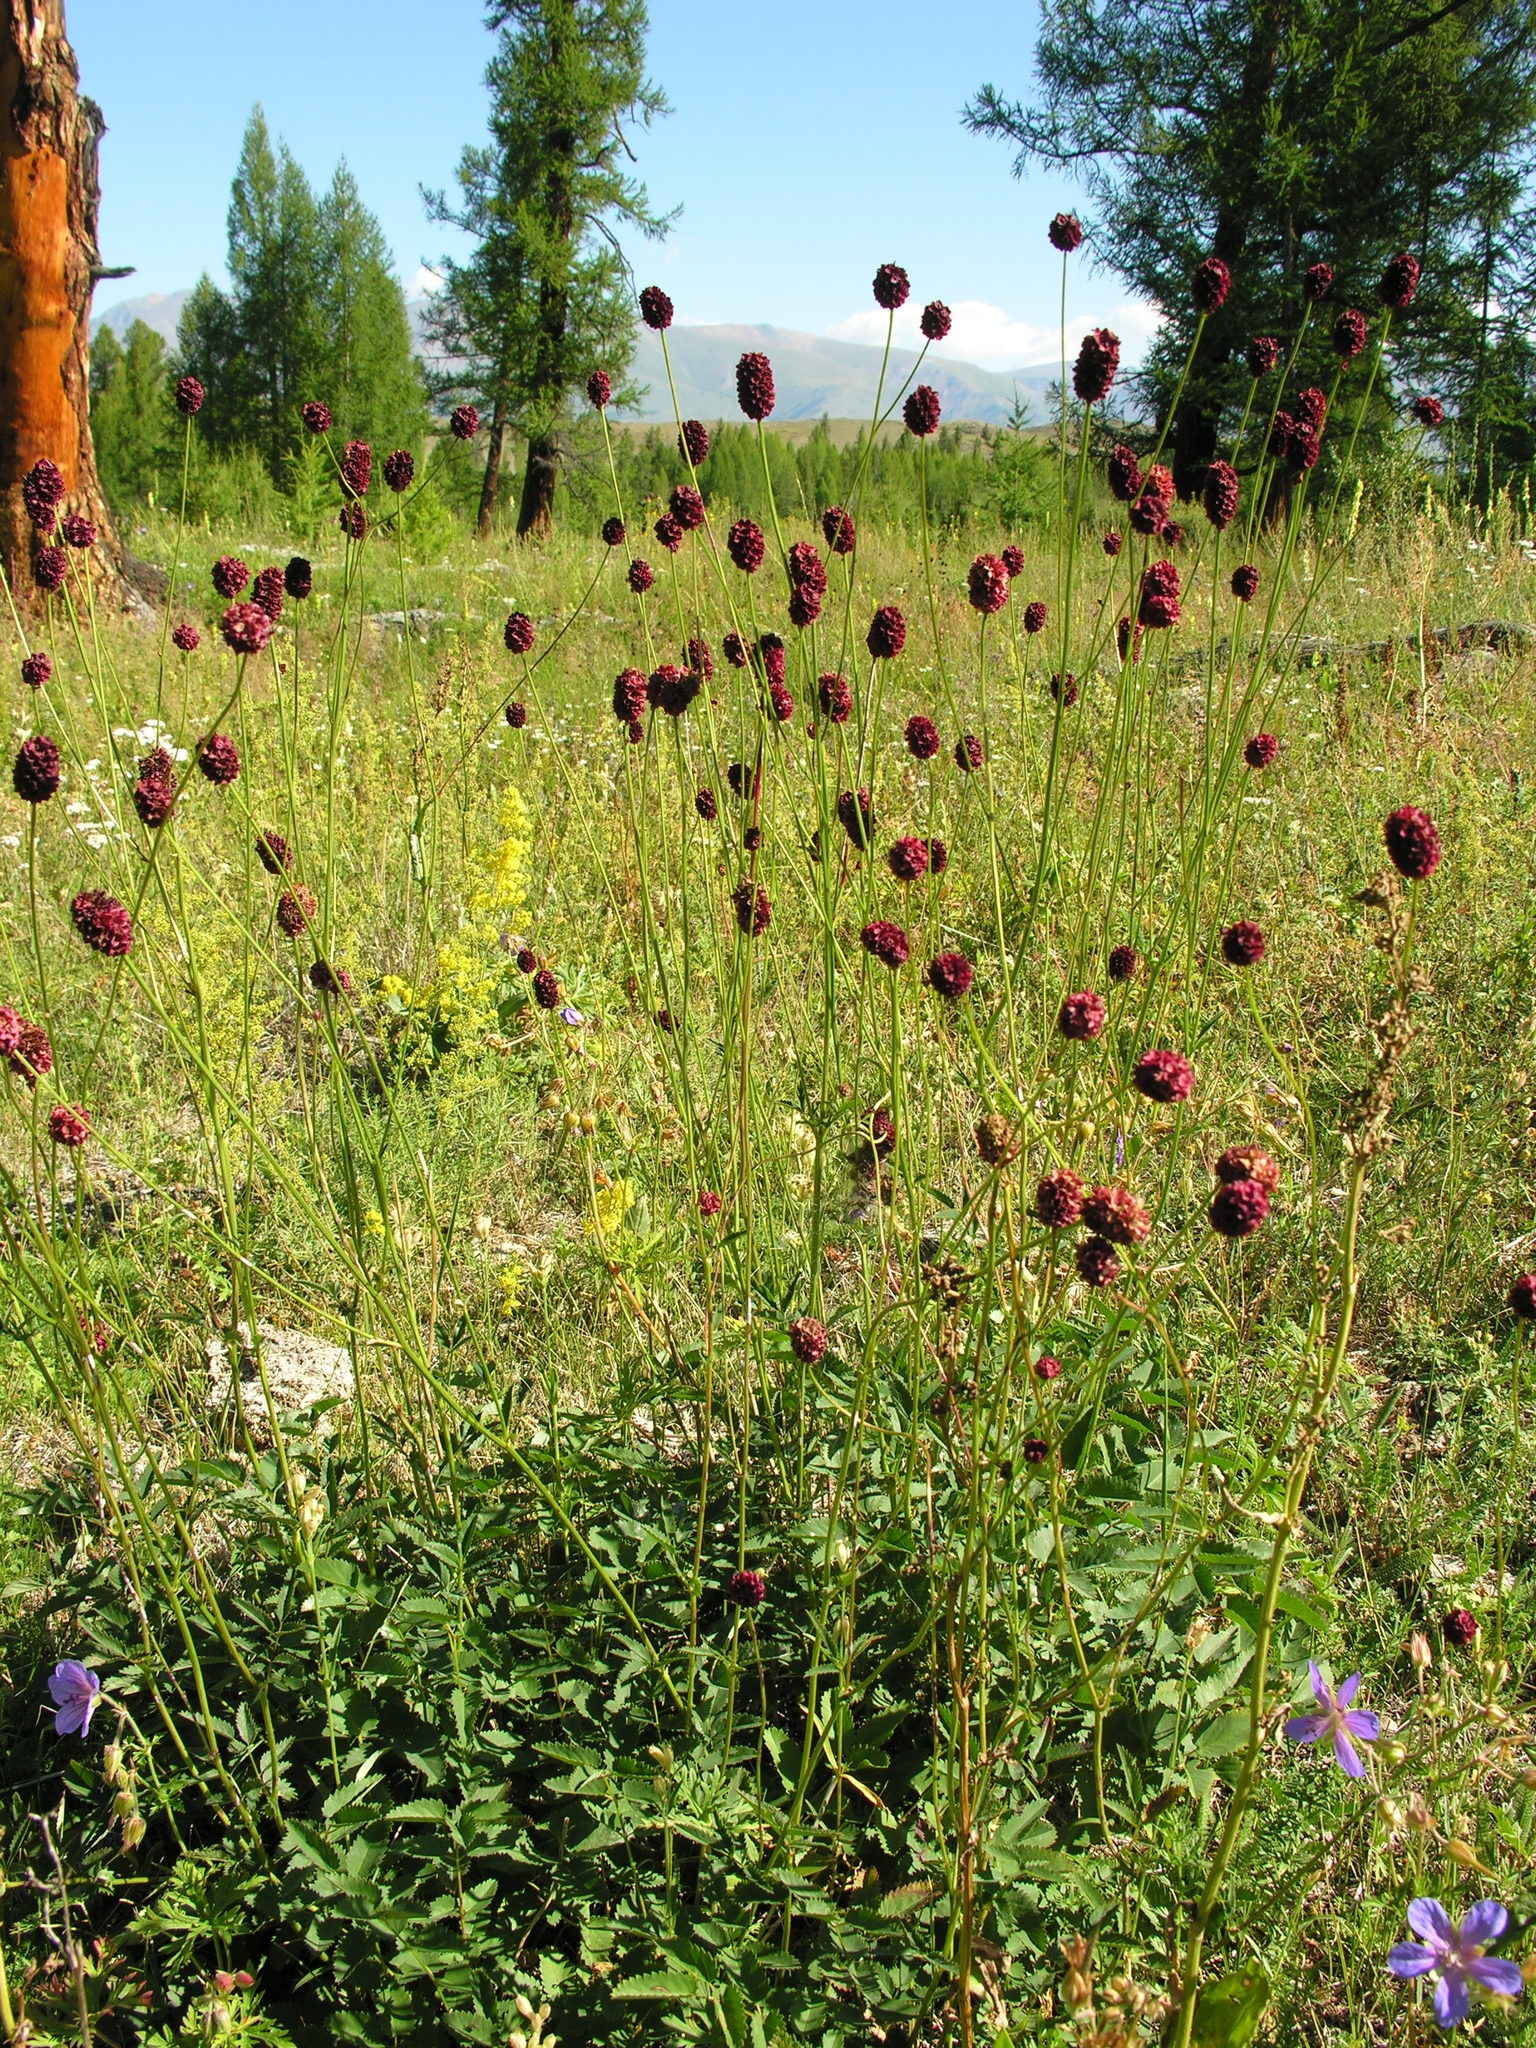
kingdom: Plantae
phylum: Tracheophyta
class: Magnoliopsida
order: Rosales
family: Rosaceae
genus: Sanguisorba
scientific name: Sanguisorba officinalis
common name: Great burnet
